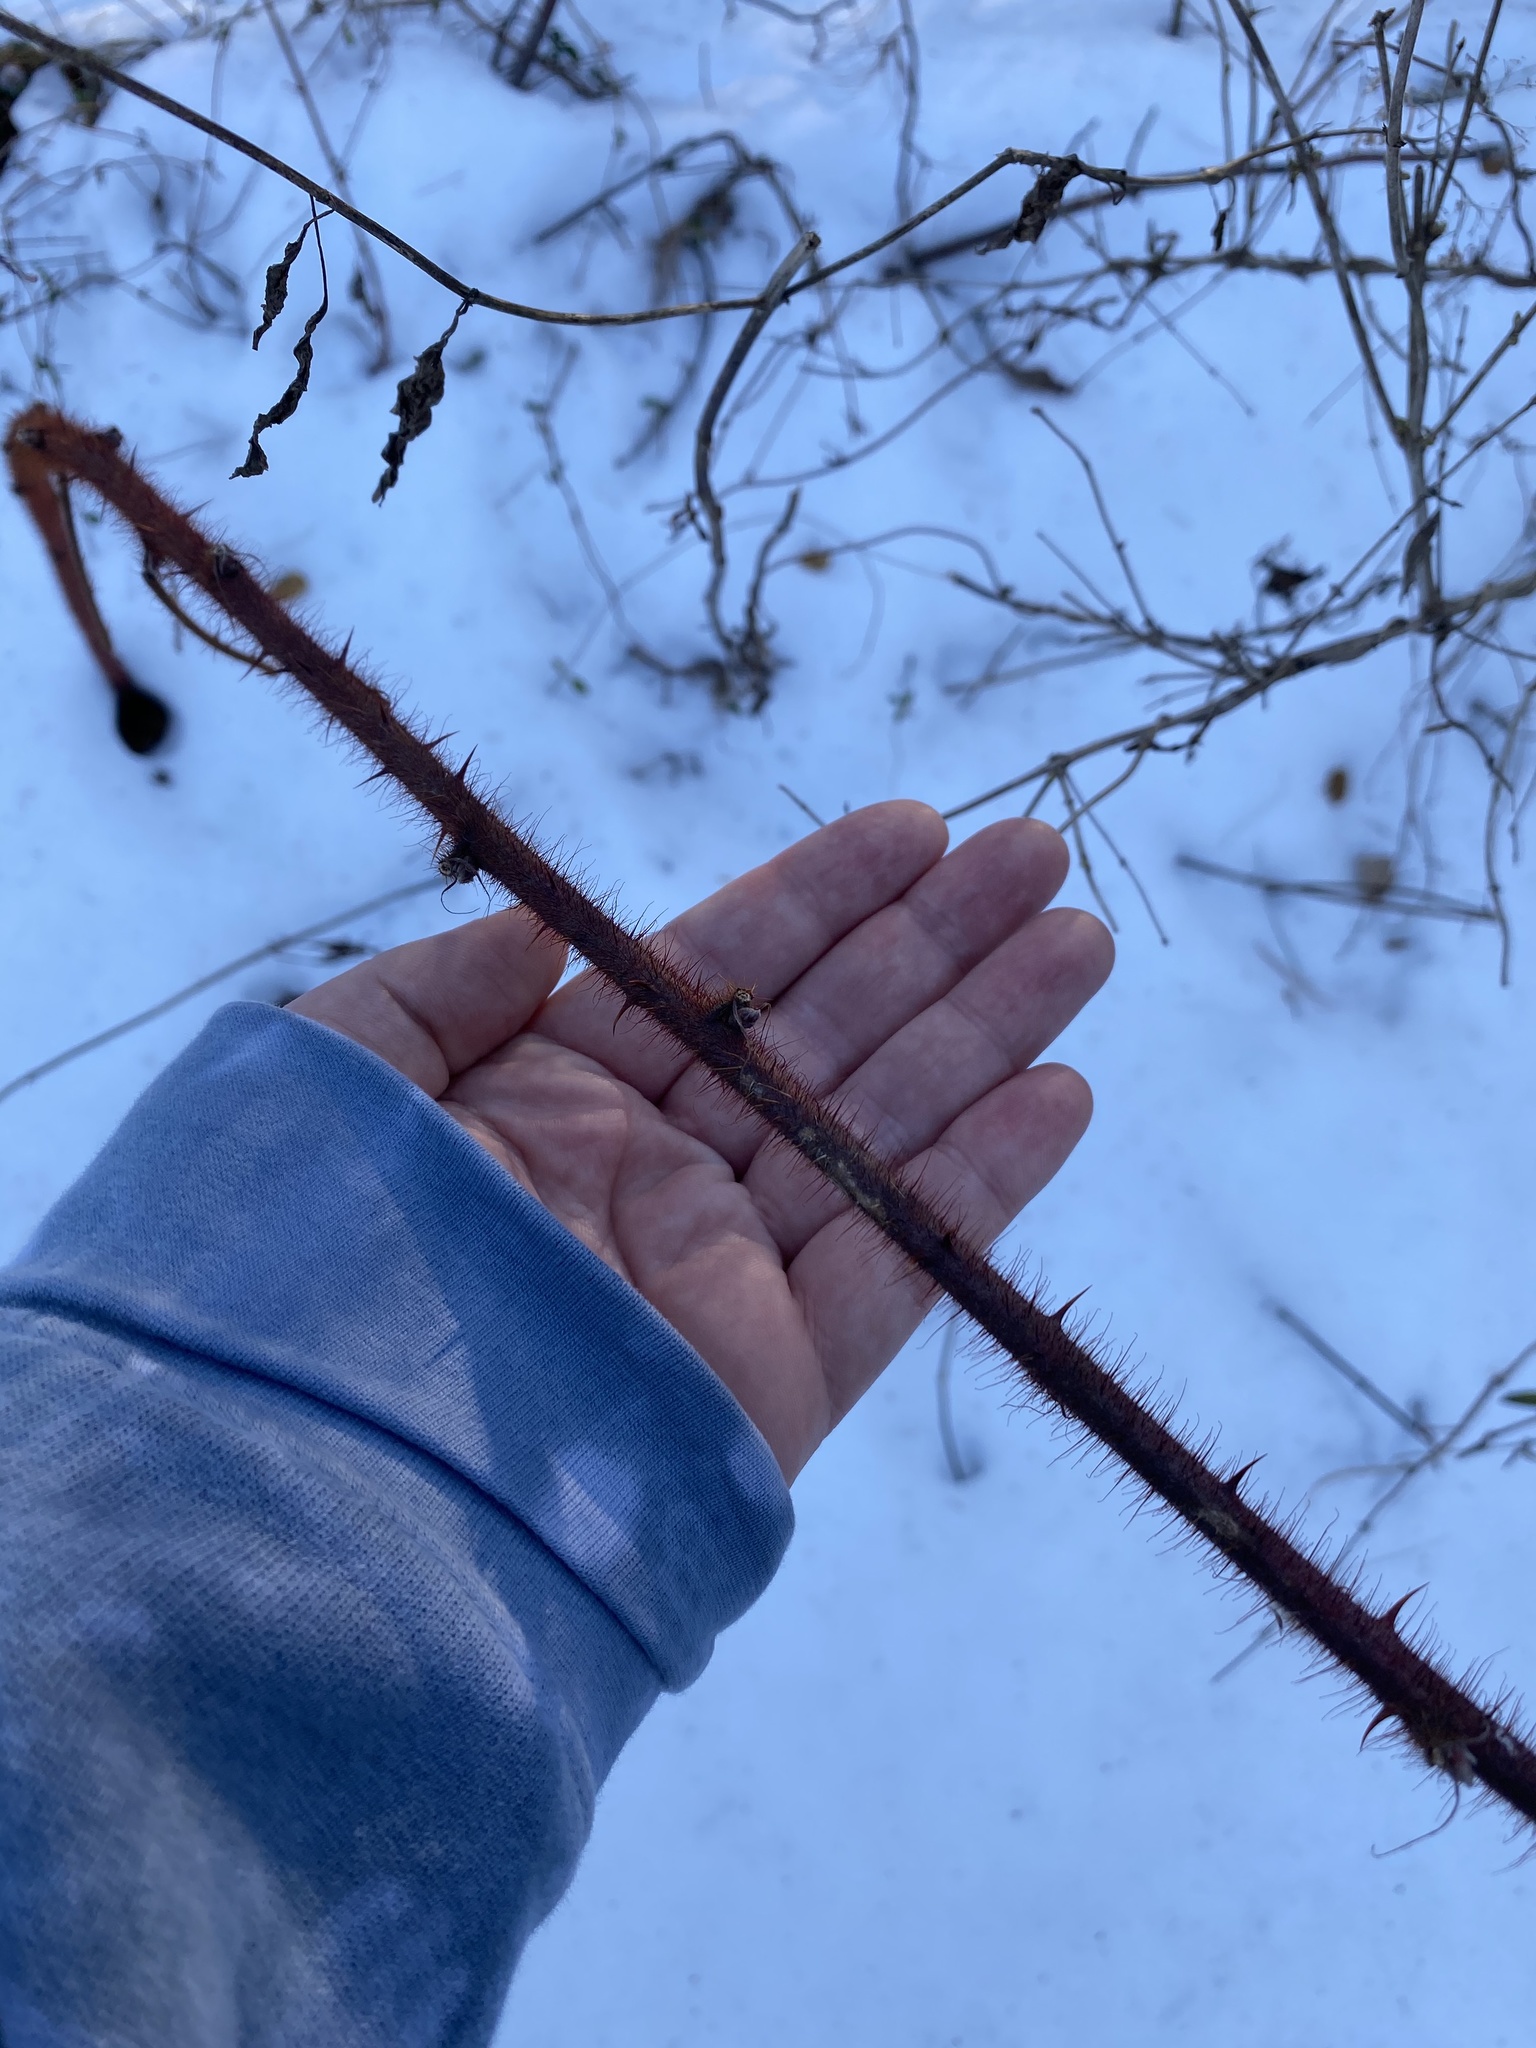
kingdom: Plantae
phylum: Tracheophyta
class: Magnoliopsida
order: Rosales
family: Rosaceae
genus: Rubus
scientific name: Rubus phoenicolasius
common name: Japanese wineberry
